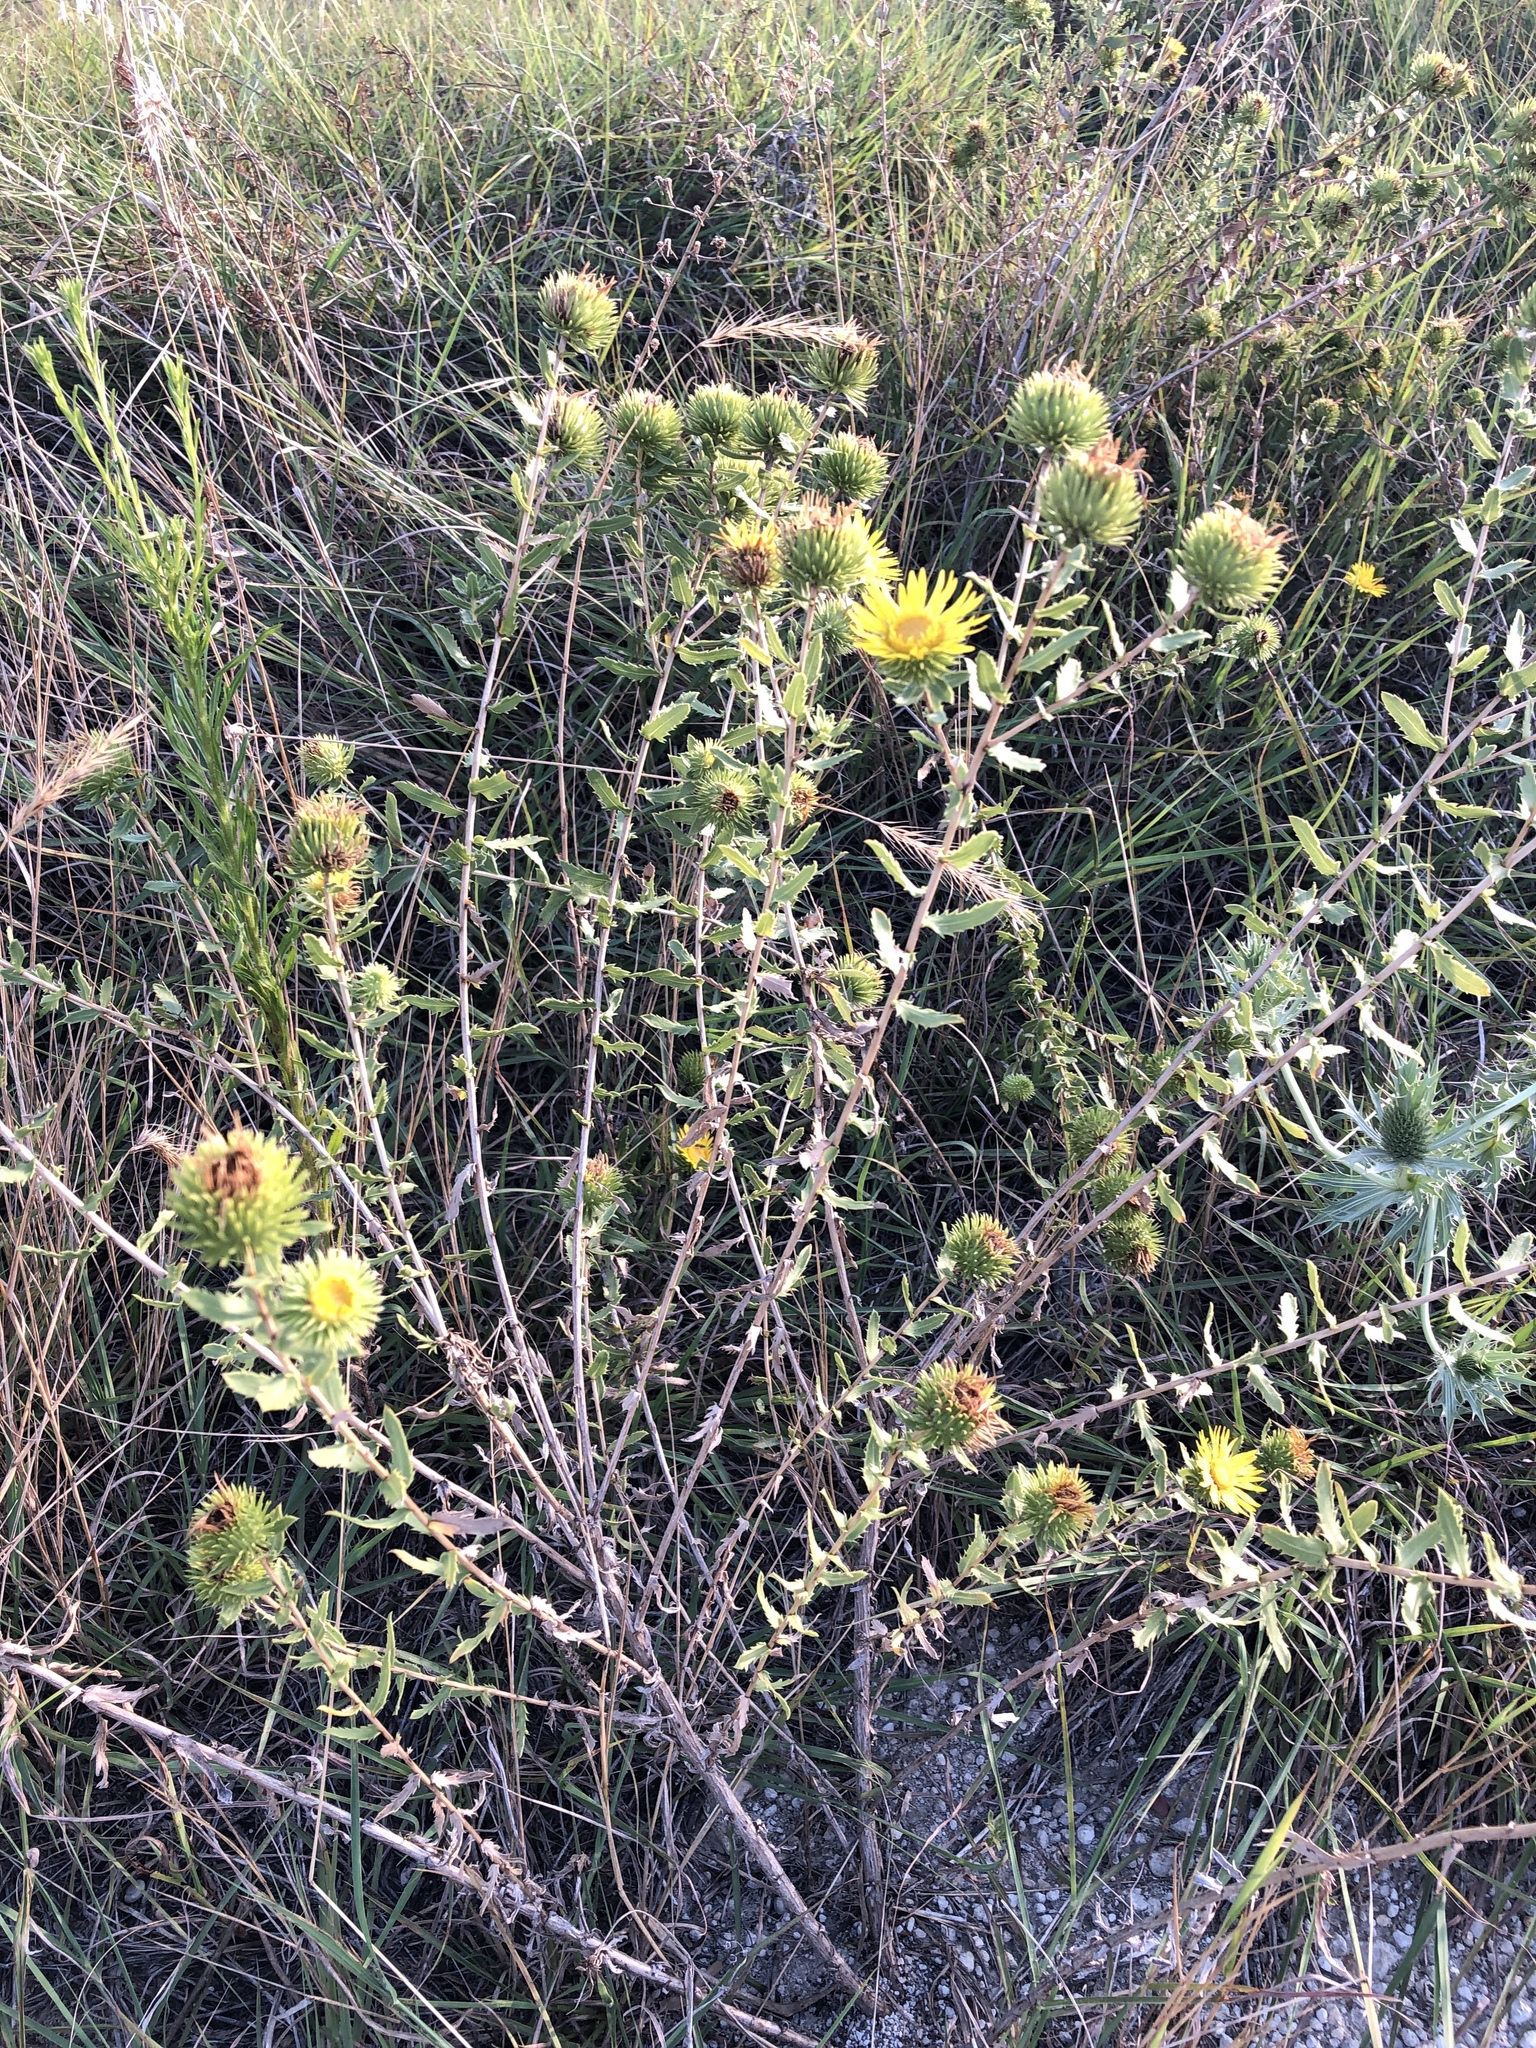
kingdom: Plantae
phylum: Tracheophyta
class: Magnoliopsida
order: Asterales
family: Asteraceae
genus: Grindelia
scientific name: Grindelia lanceolata
